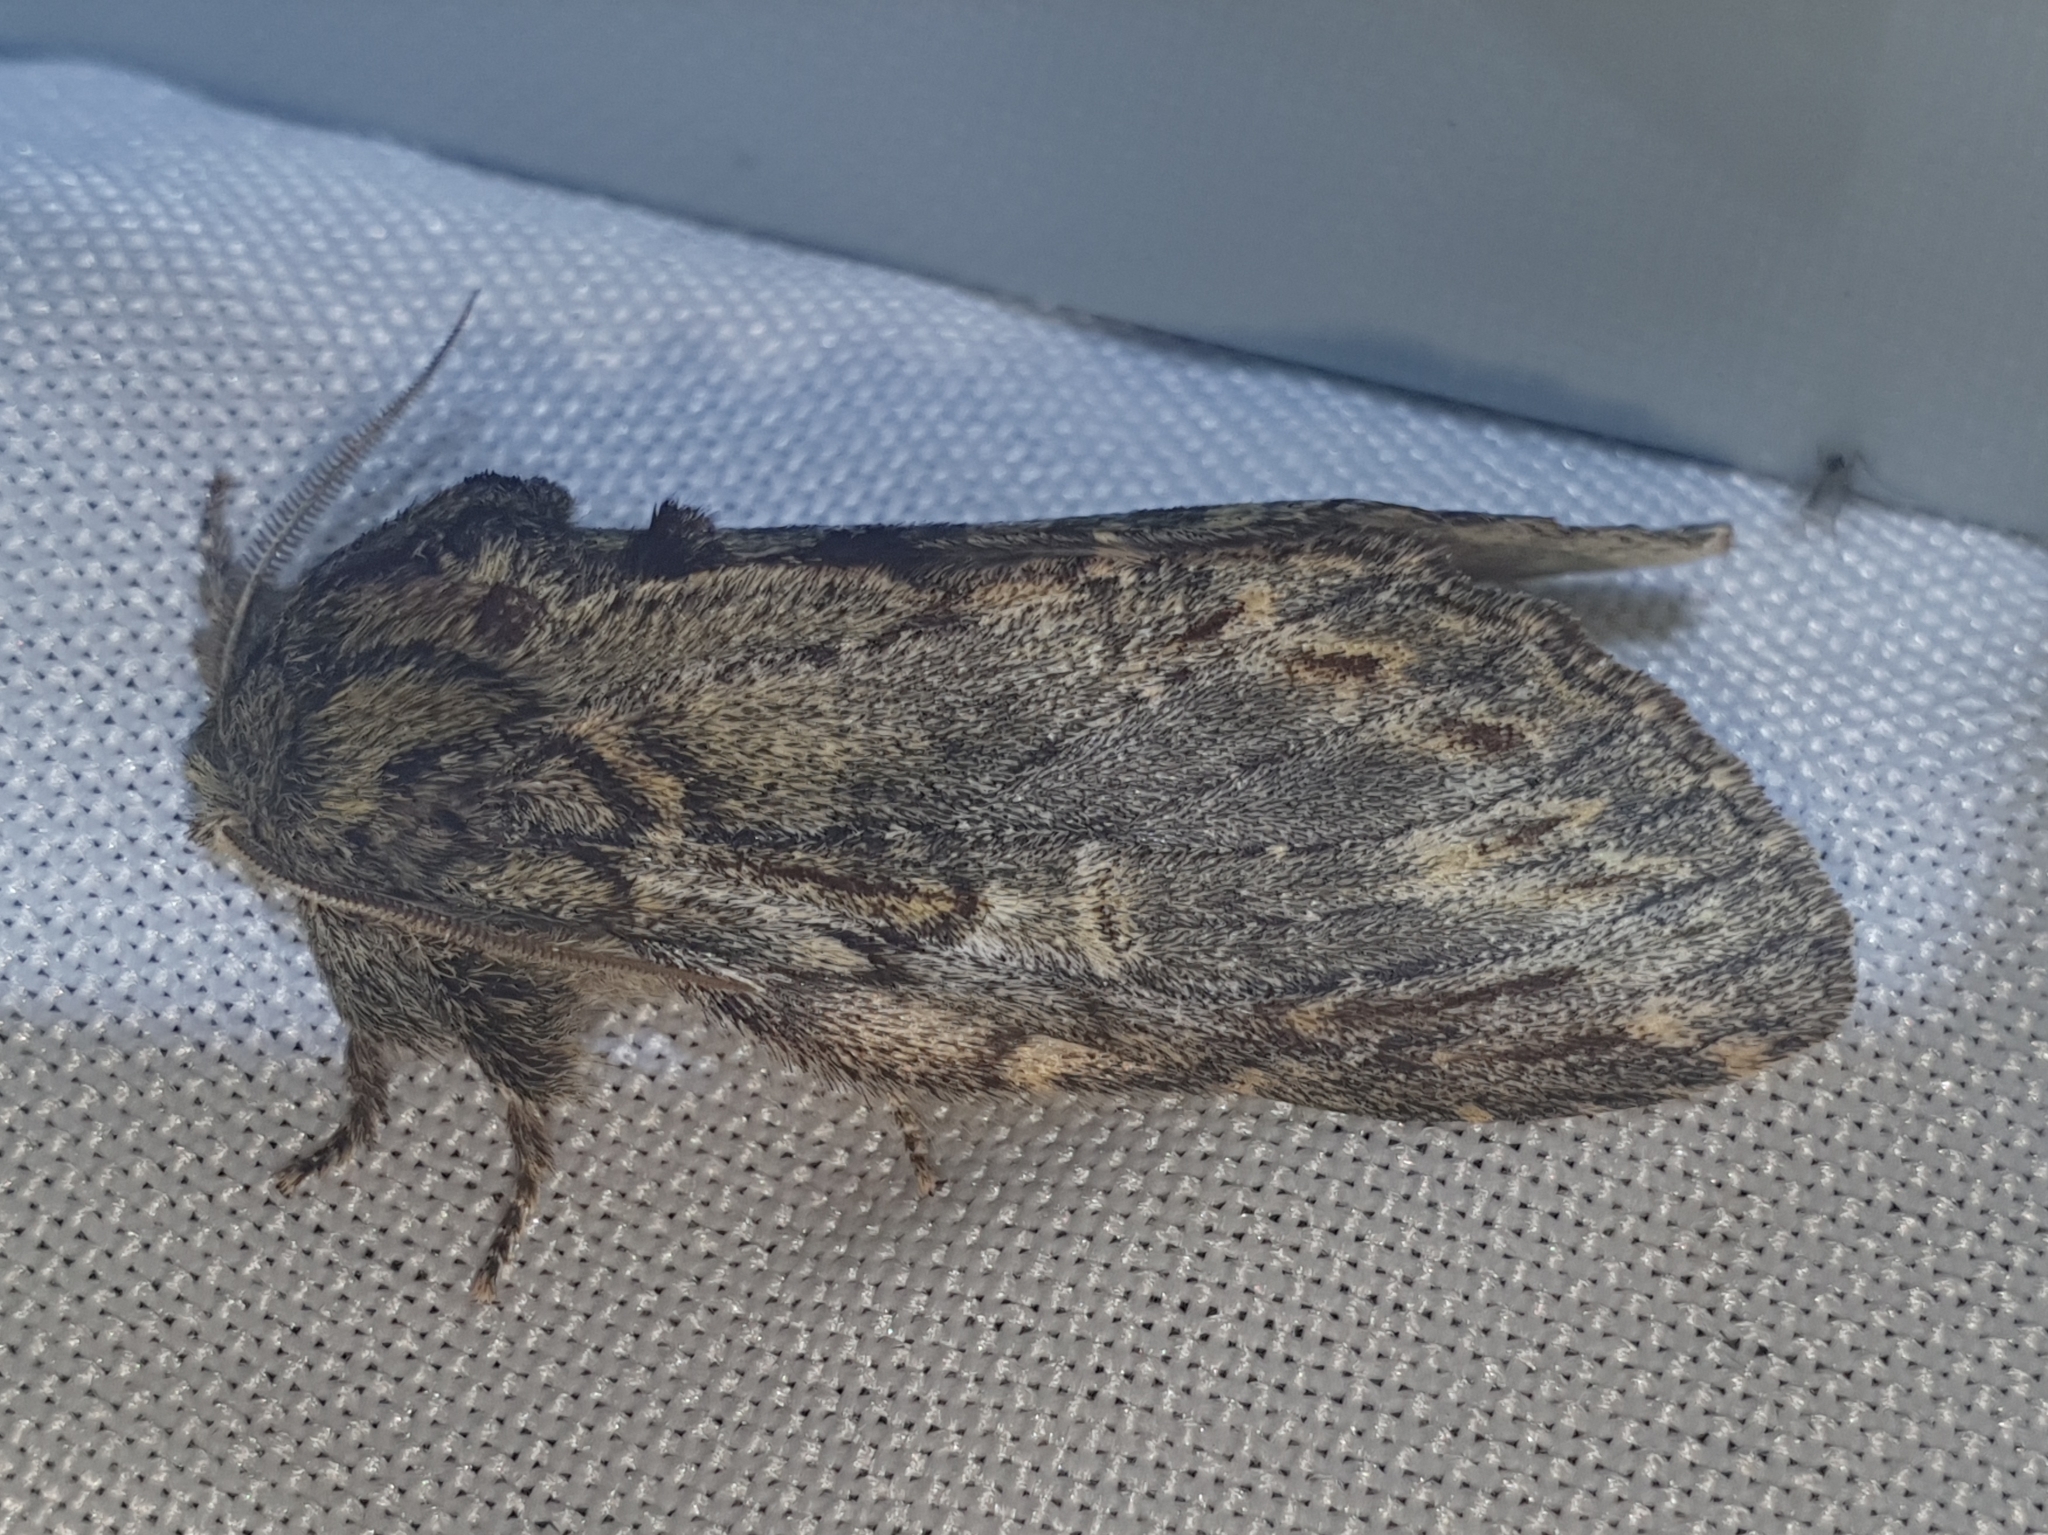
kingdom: Animalia
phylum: Arthropoda
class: Insecta
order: Lepidoptera
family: Notodontidae
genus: Peridea
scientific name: Peridea anceps
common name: Great prominent
